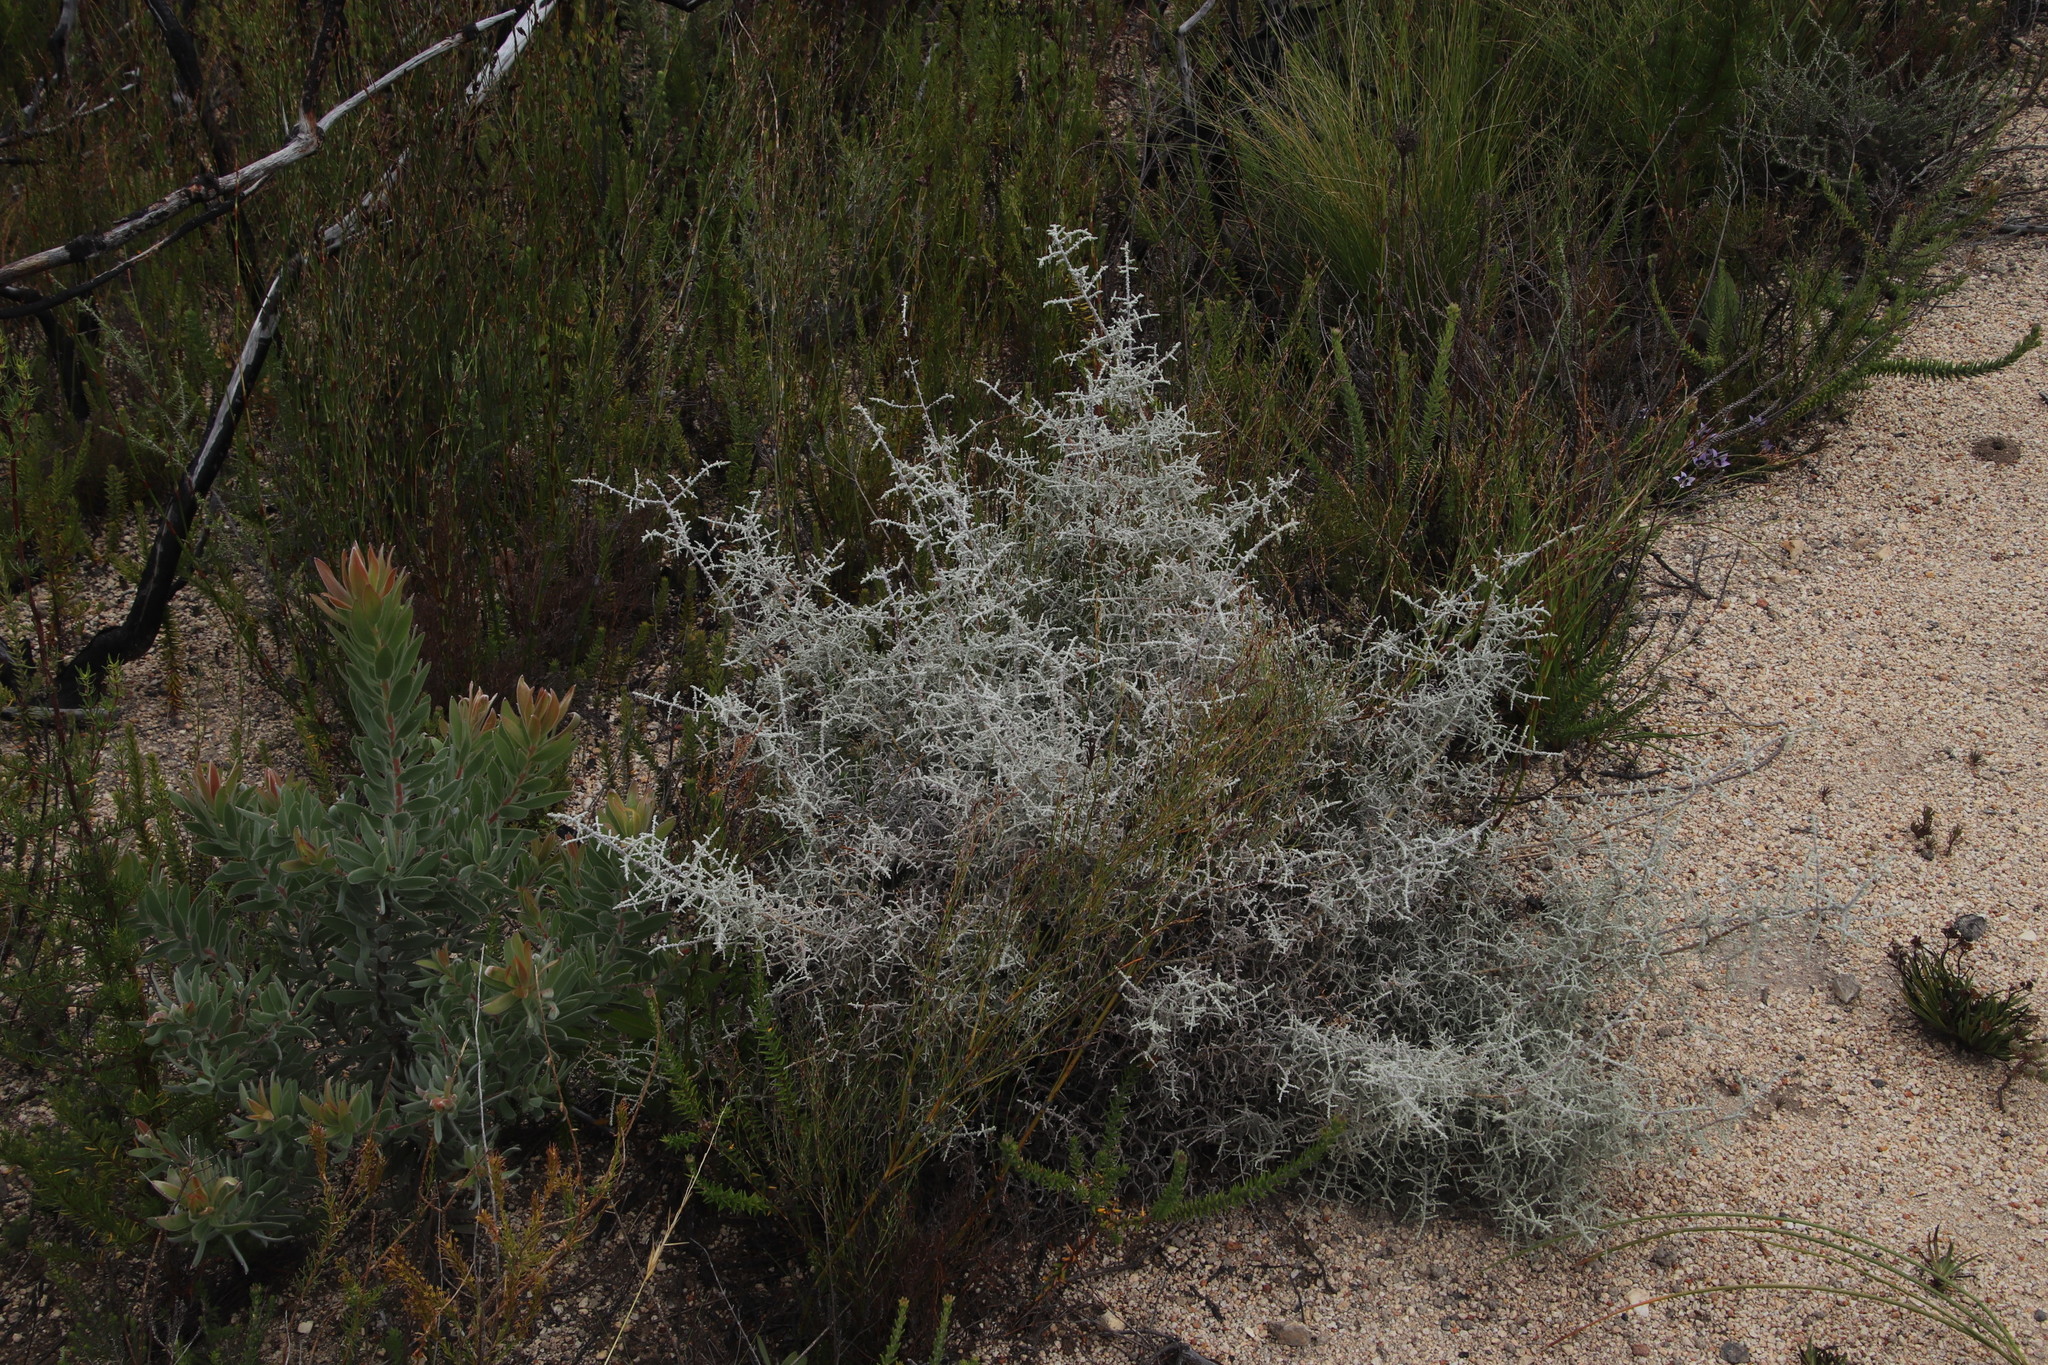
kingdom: Plantae
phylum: Tracheophyta
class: Magnoliopsida
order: Asterales
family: Asteraceae
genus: Seriphium
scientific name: Seriphium plumosum
